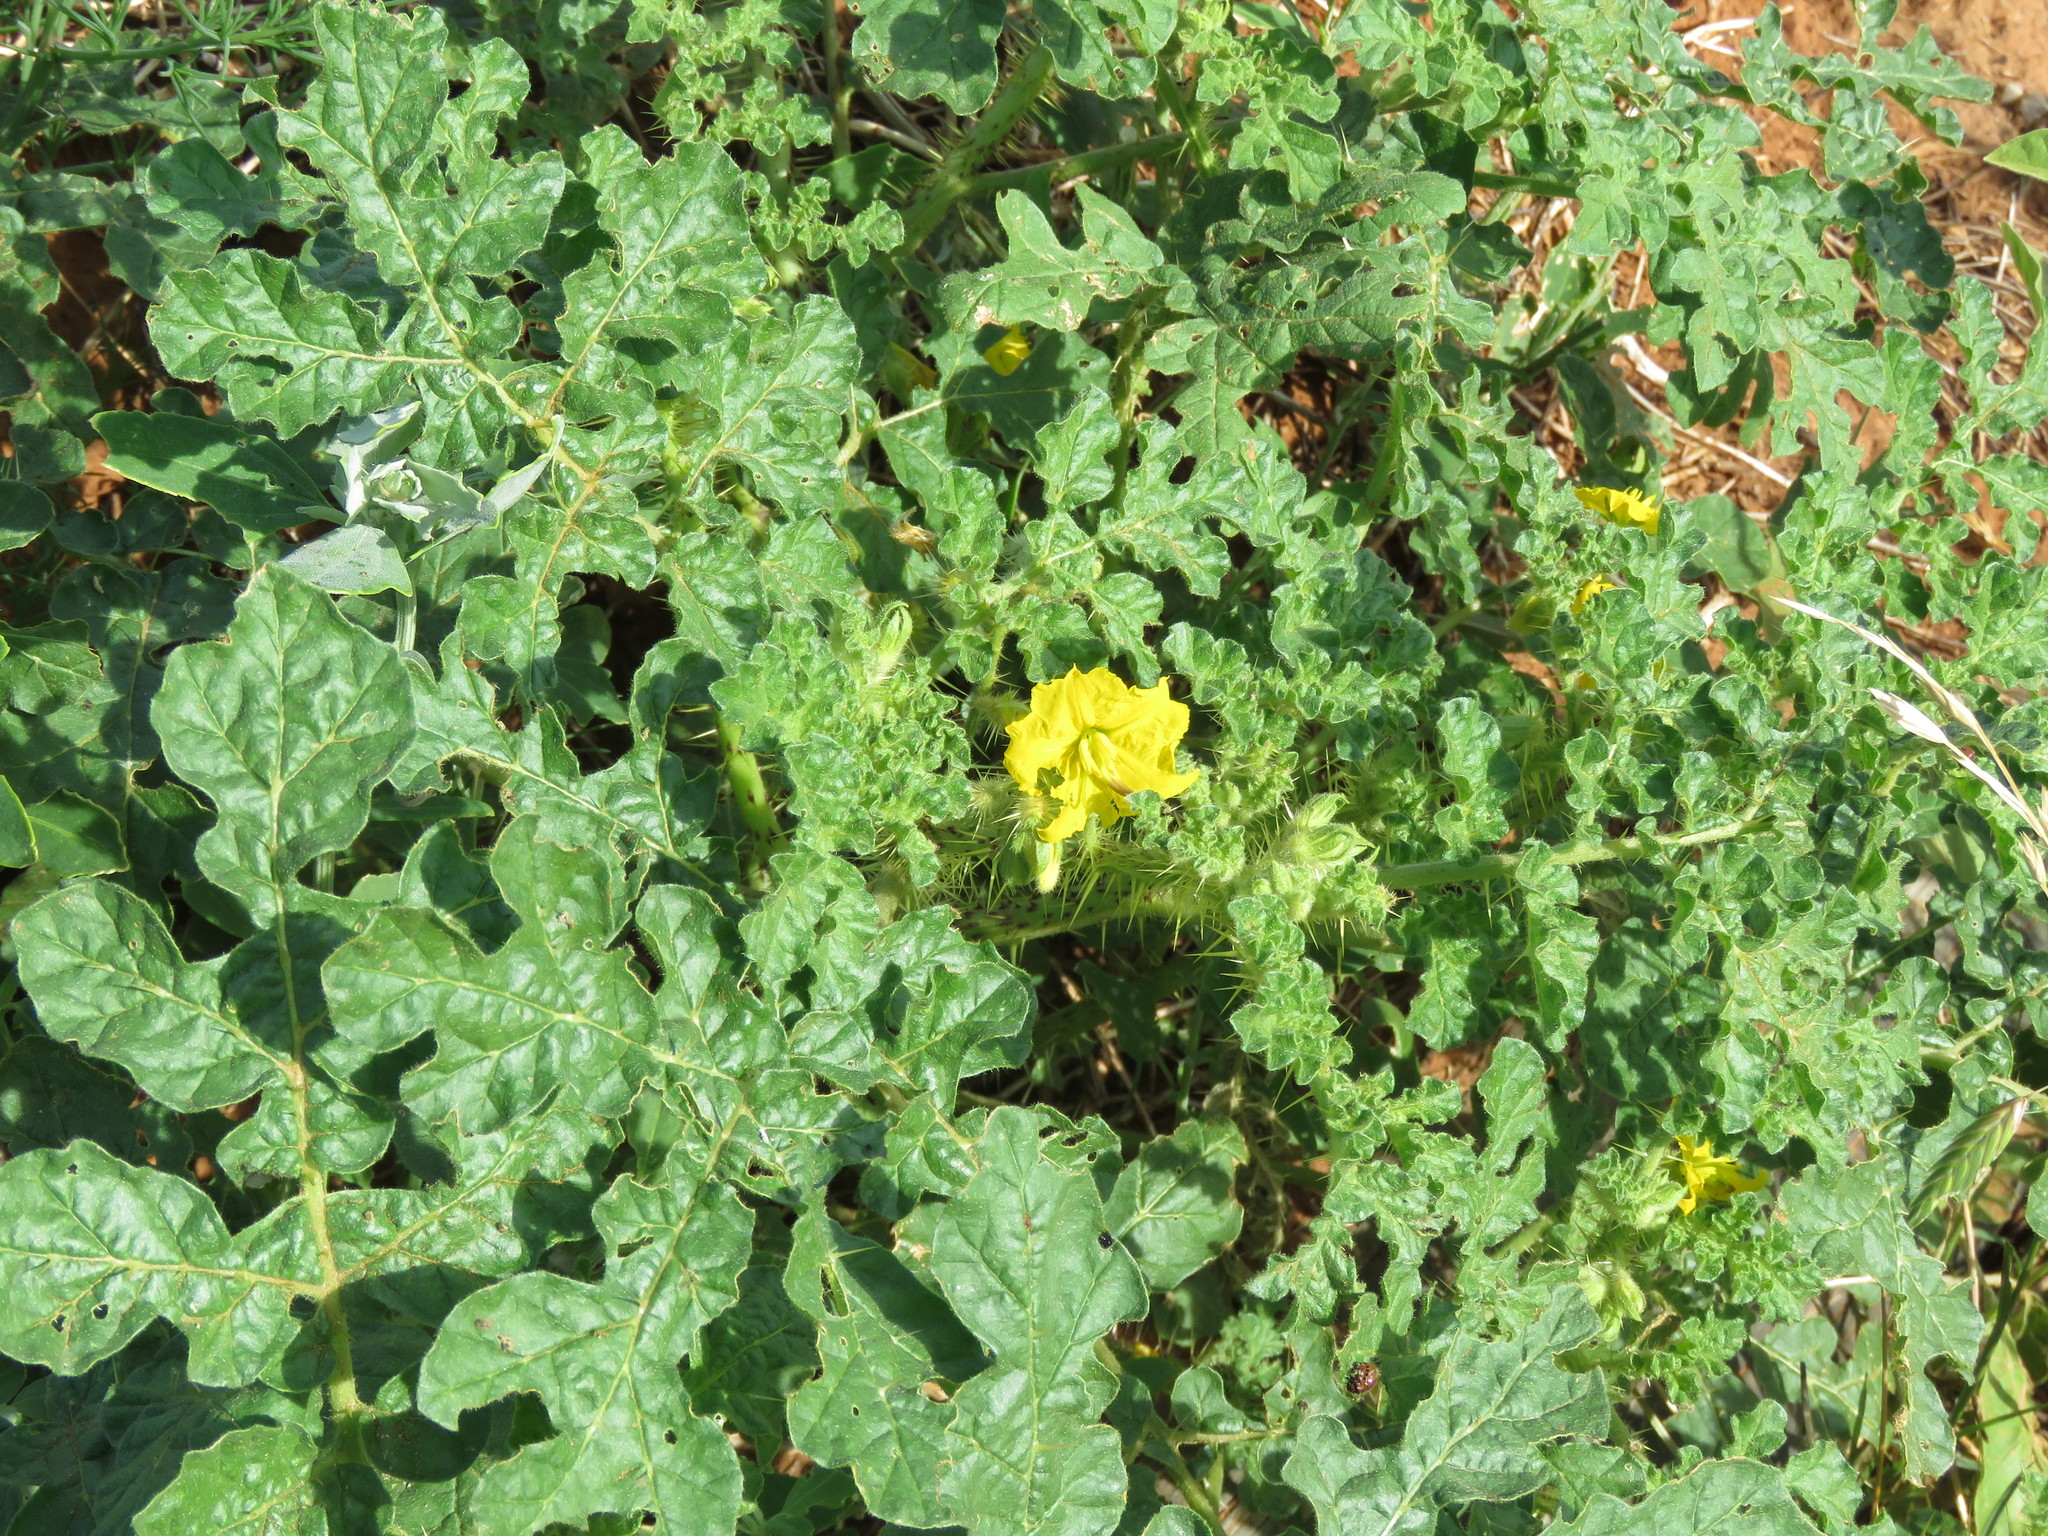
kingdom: Plantae
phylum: Tracheophyta
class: Magnoliopsida
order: Solanales
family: Solanaceae
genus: Solanum
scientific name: Solanum angustifolium
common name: Buffalobur nightshade
